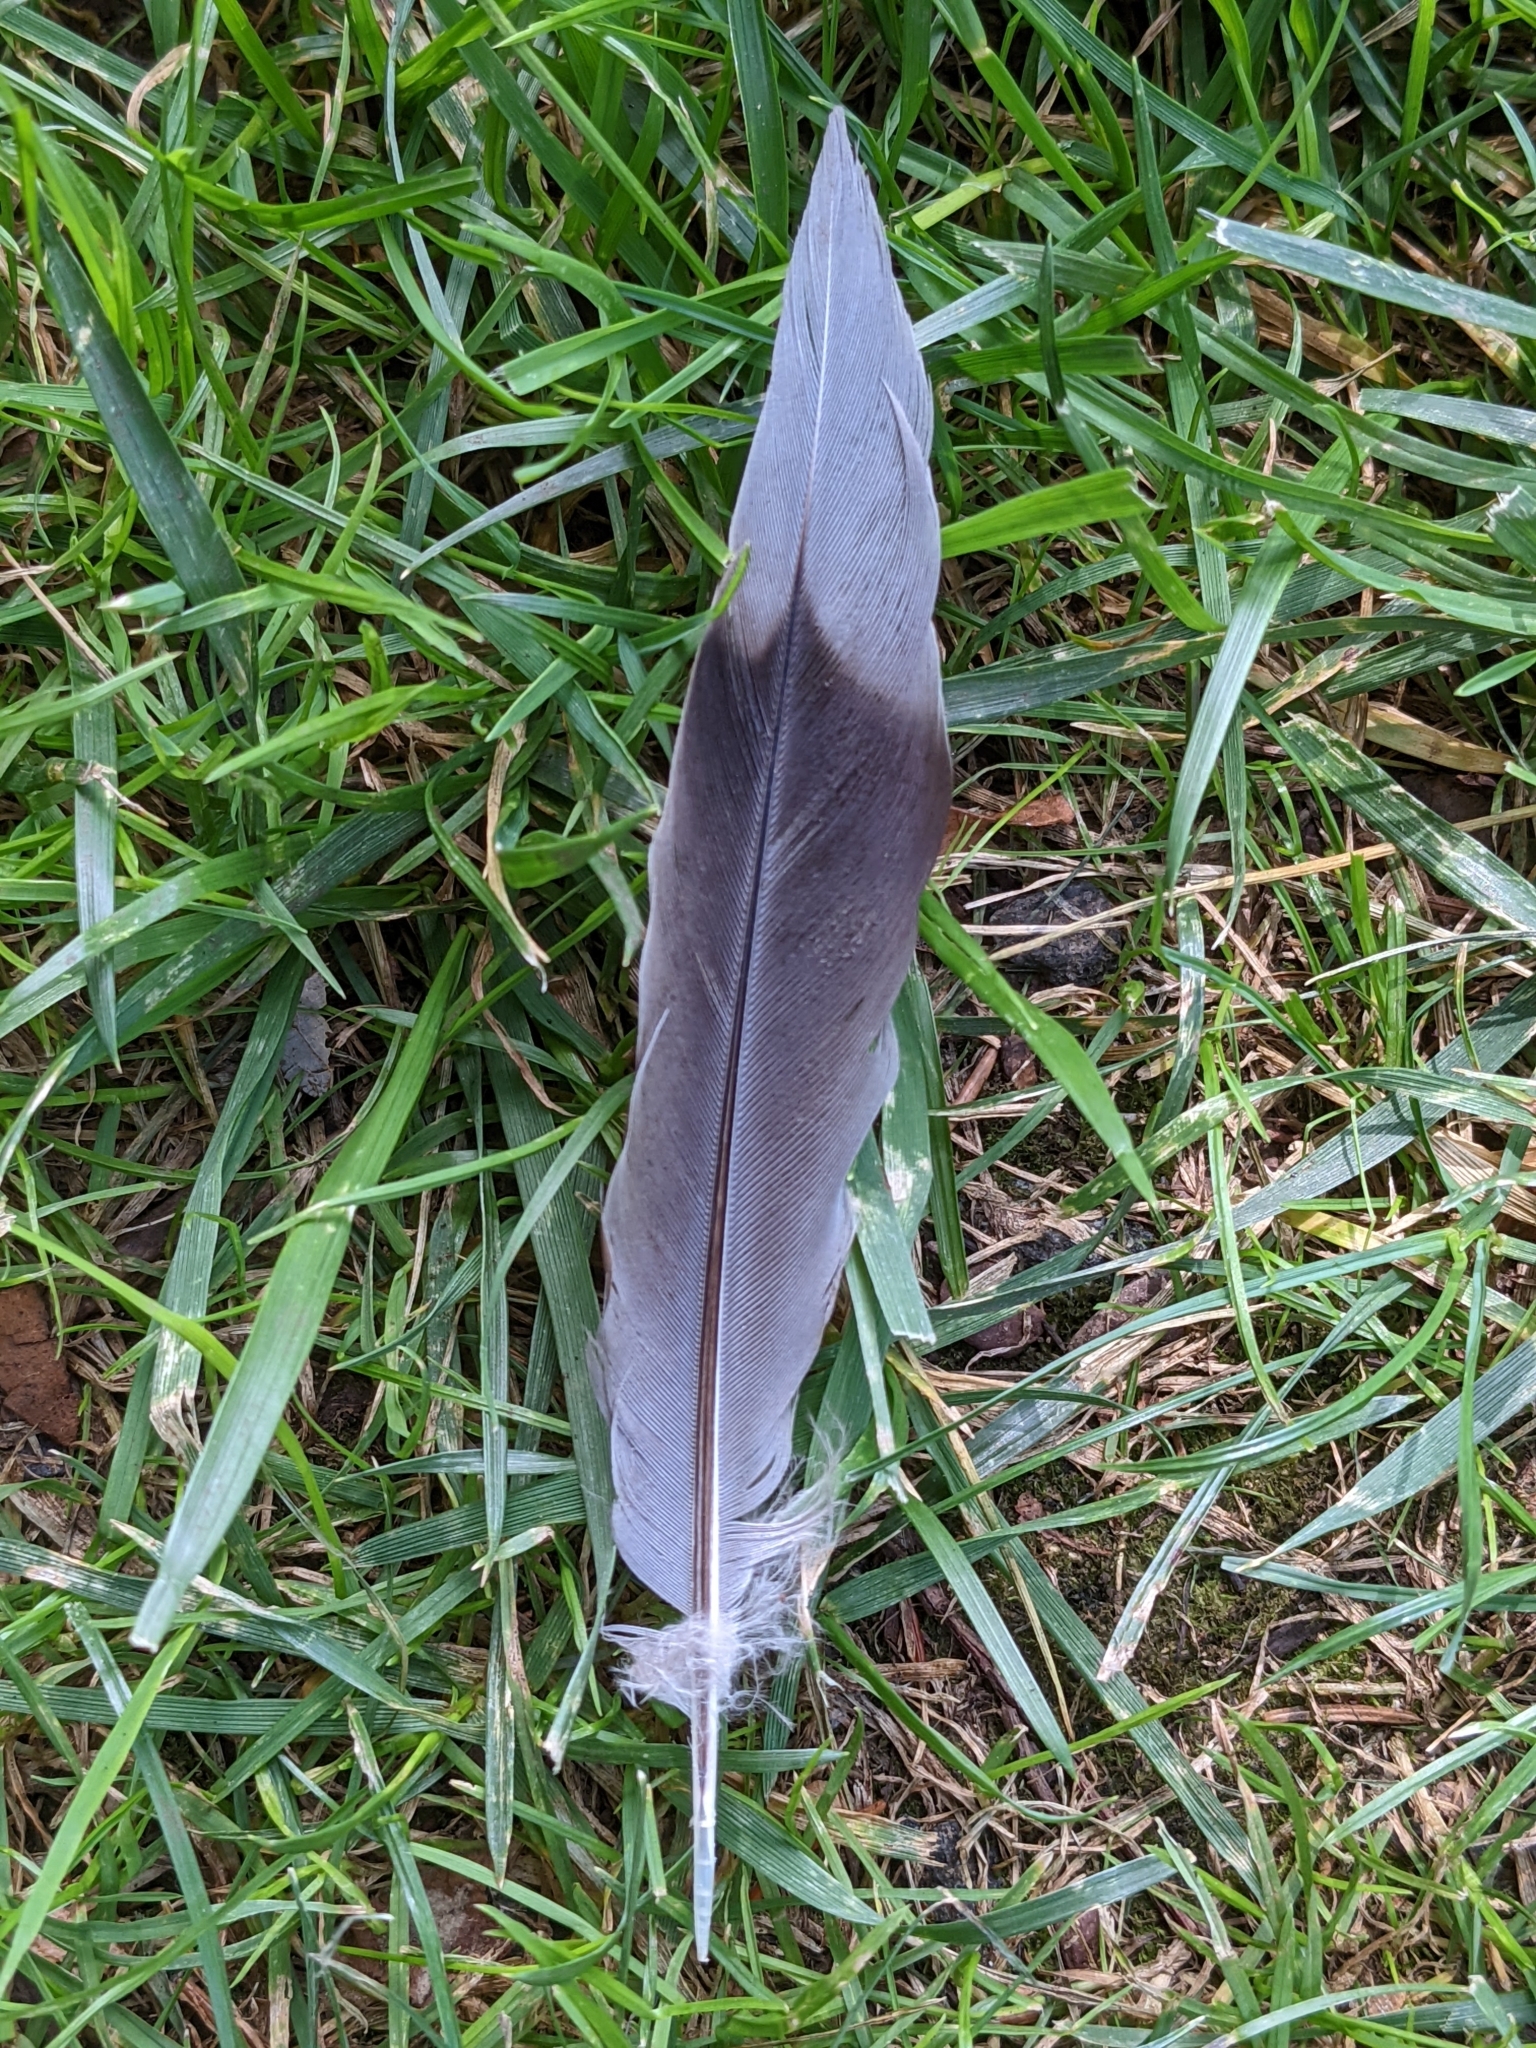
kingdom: Animalia
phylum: Chordata
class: Aves
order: Columbiformes
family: Columbidae
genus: Zenaida
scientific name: Zenaida macroura
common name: Mourning dove
